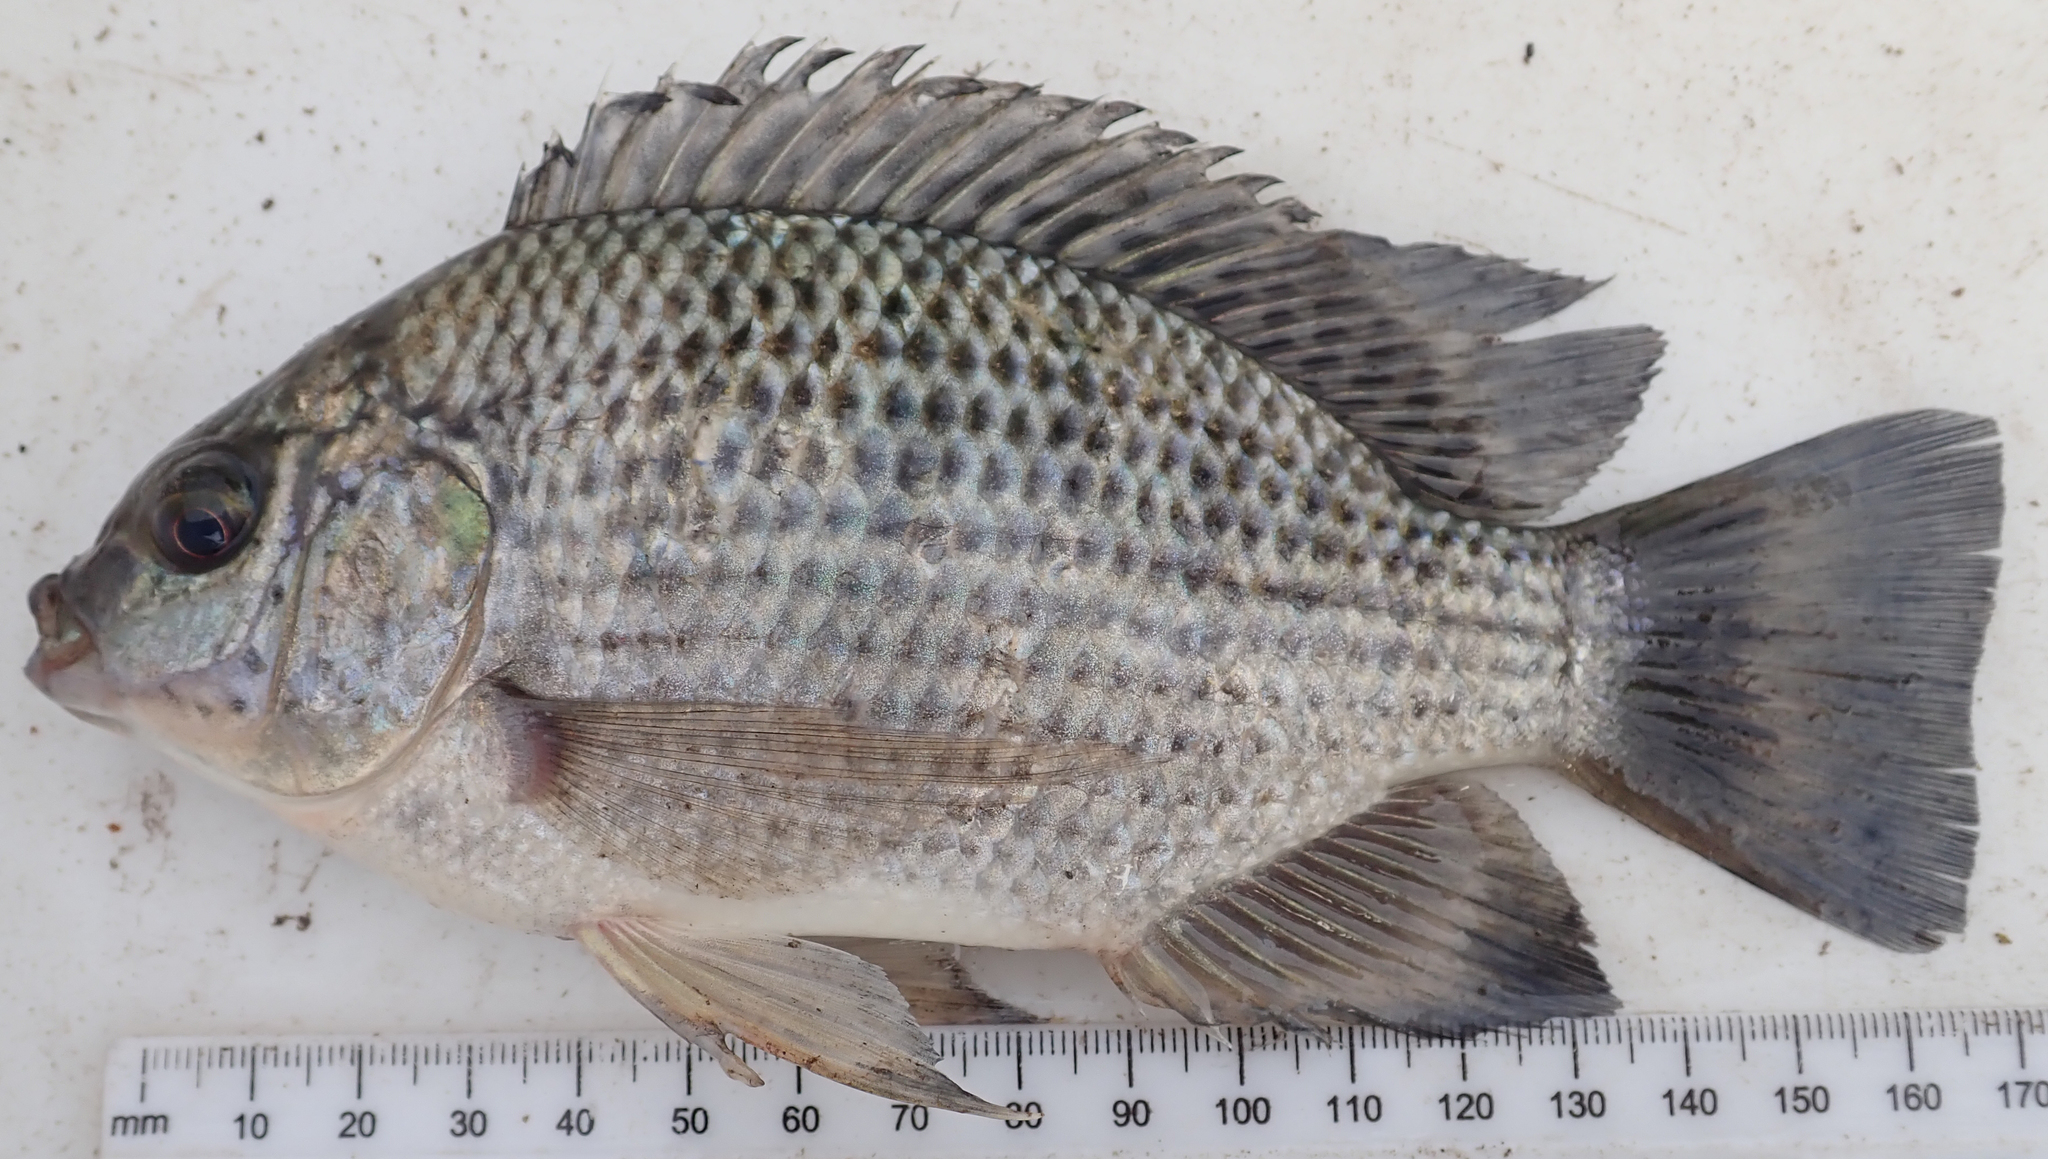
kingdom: Animalia
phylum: Chordata
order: Perciformes
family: Cichlidae
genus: Oreochromis
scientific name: Oreochromis macrochir
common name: Greenhead tilapia
